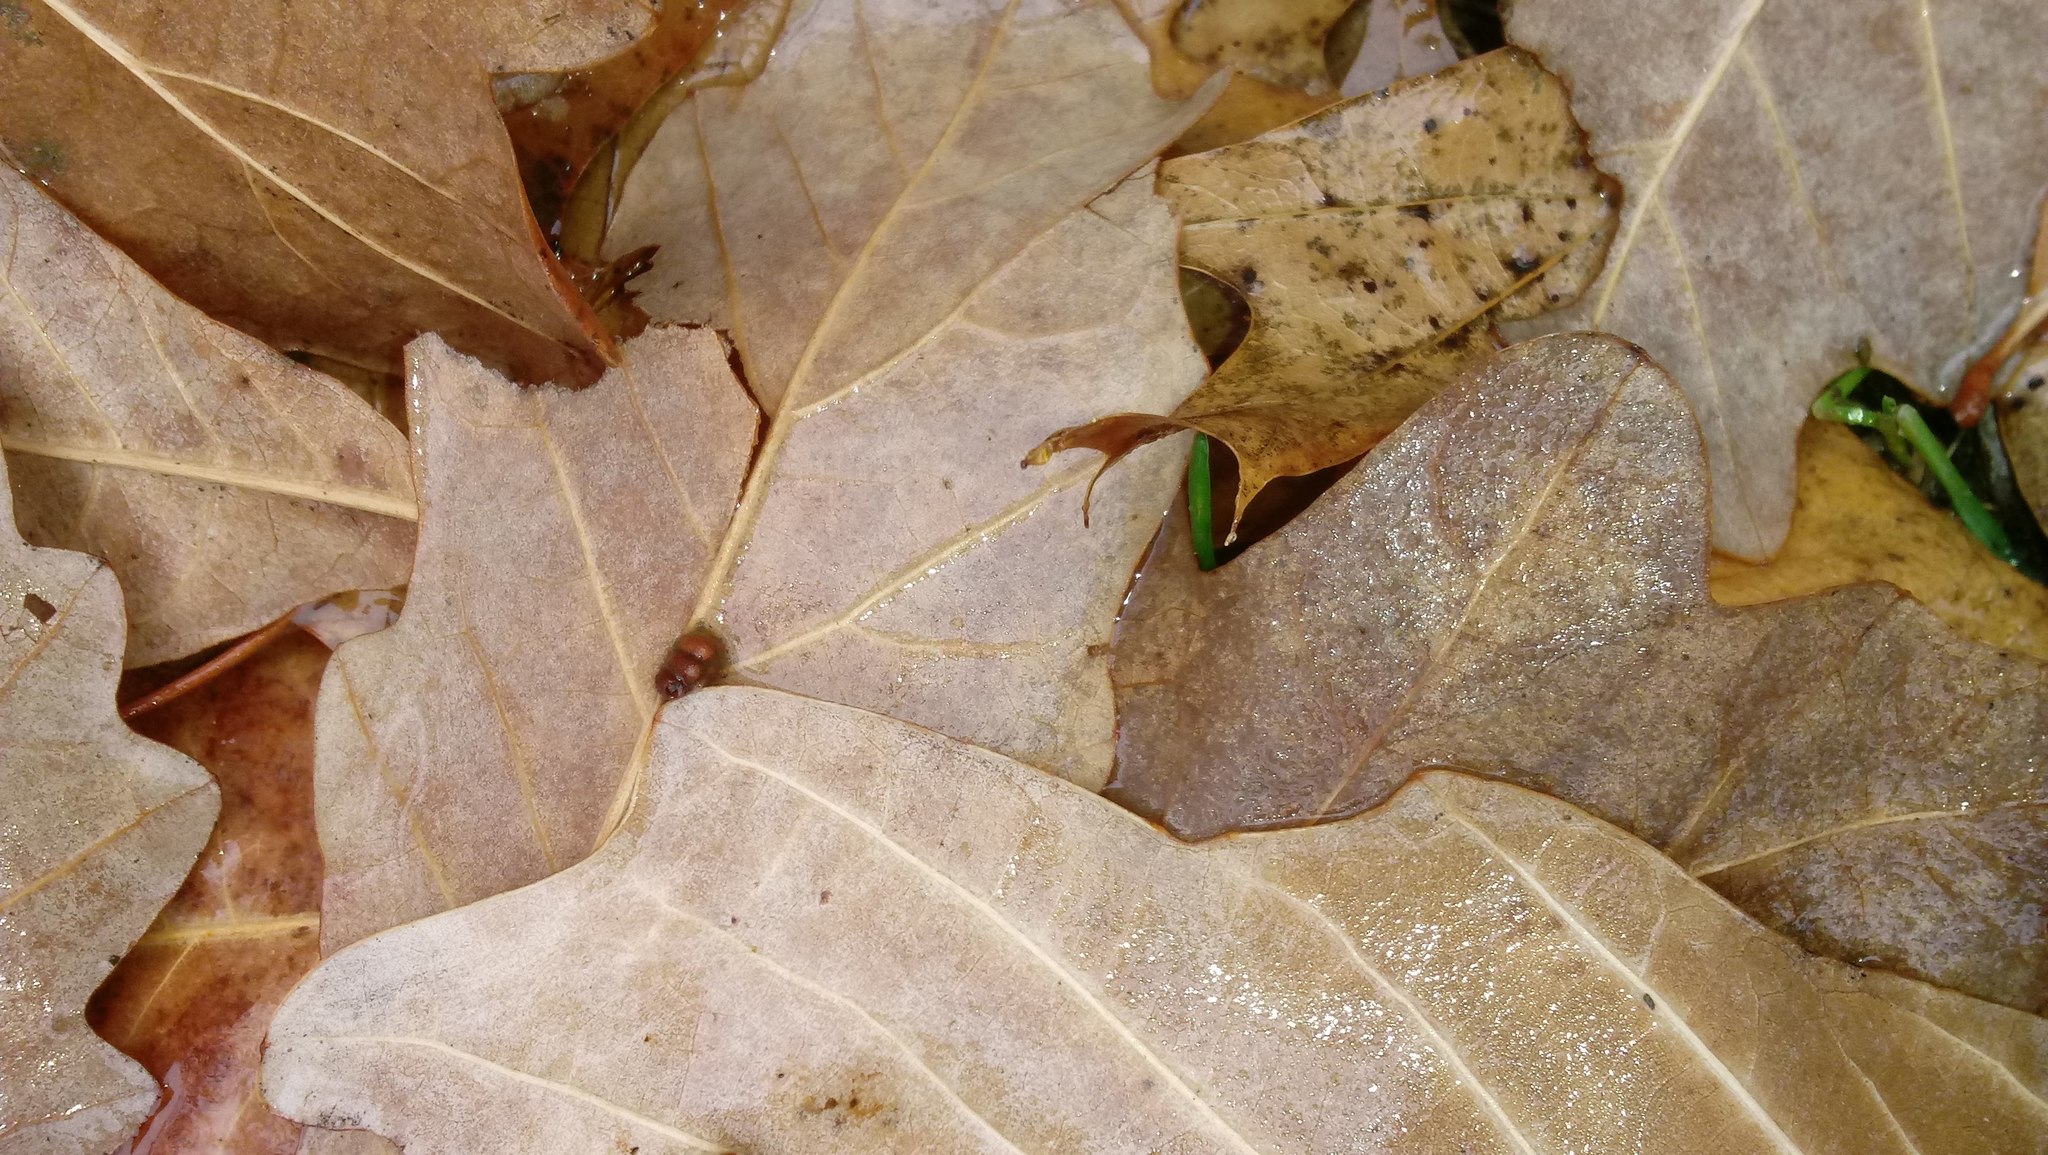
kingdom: Animalia
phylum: Arthropoda
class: Insecta
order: Hymenoptera
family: Cynipidae
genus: Andricus
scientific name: Andricus Druon ignotum
